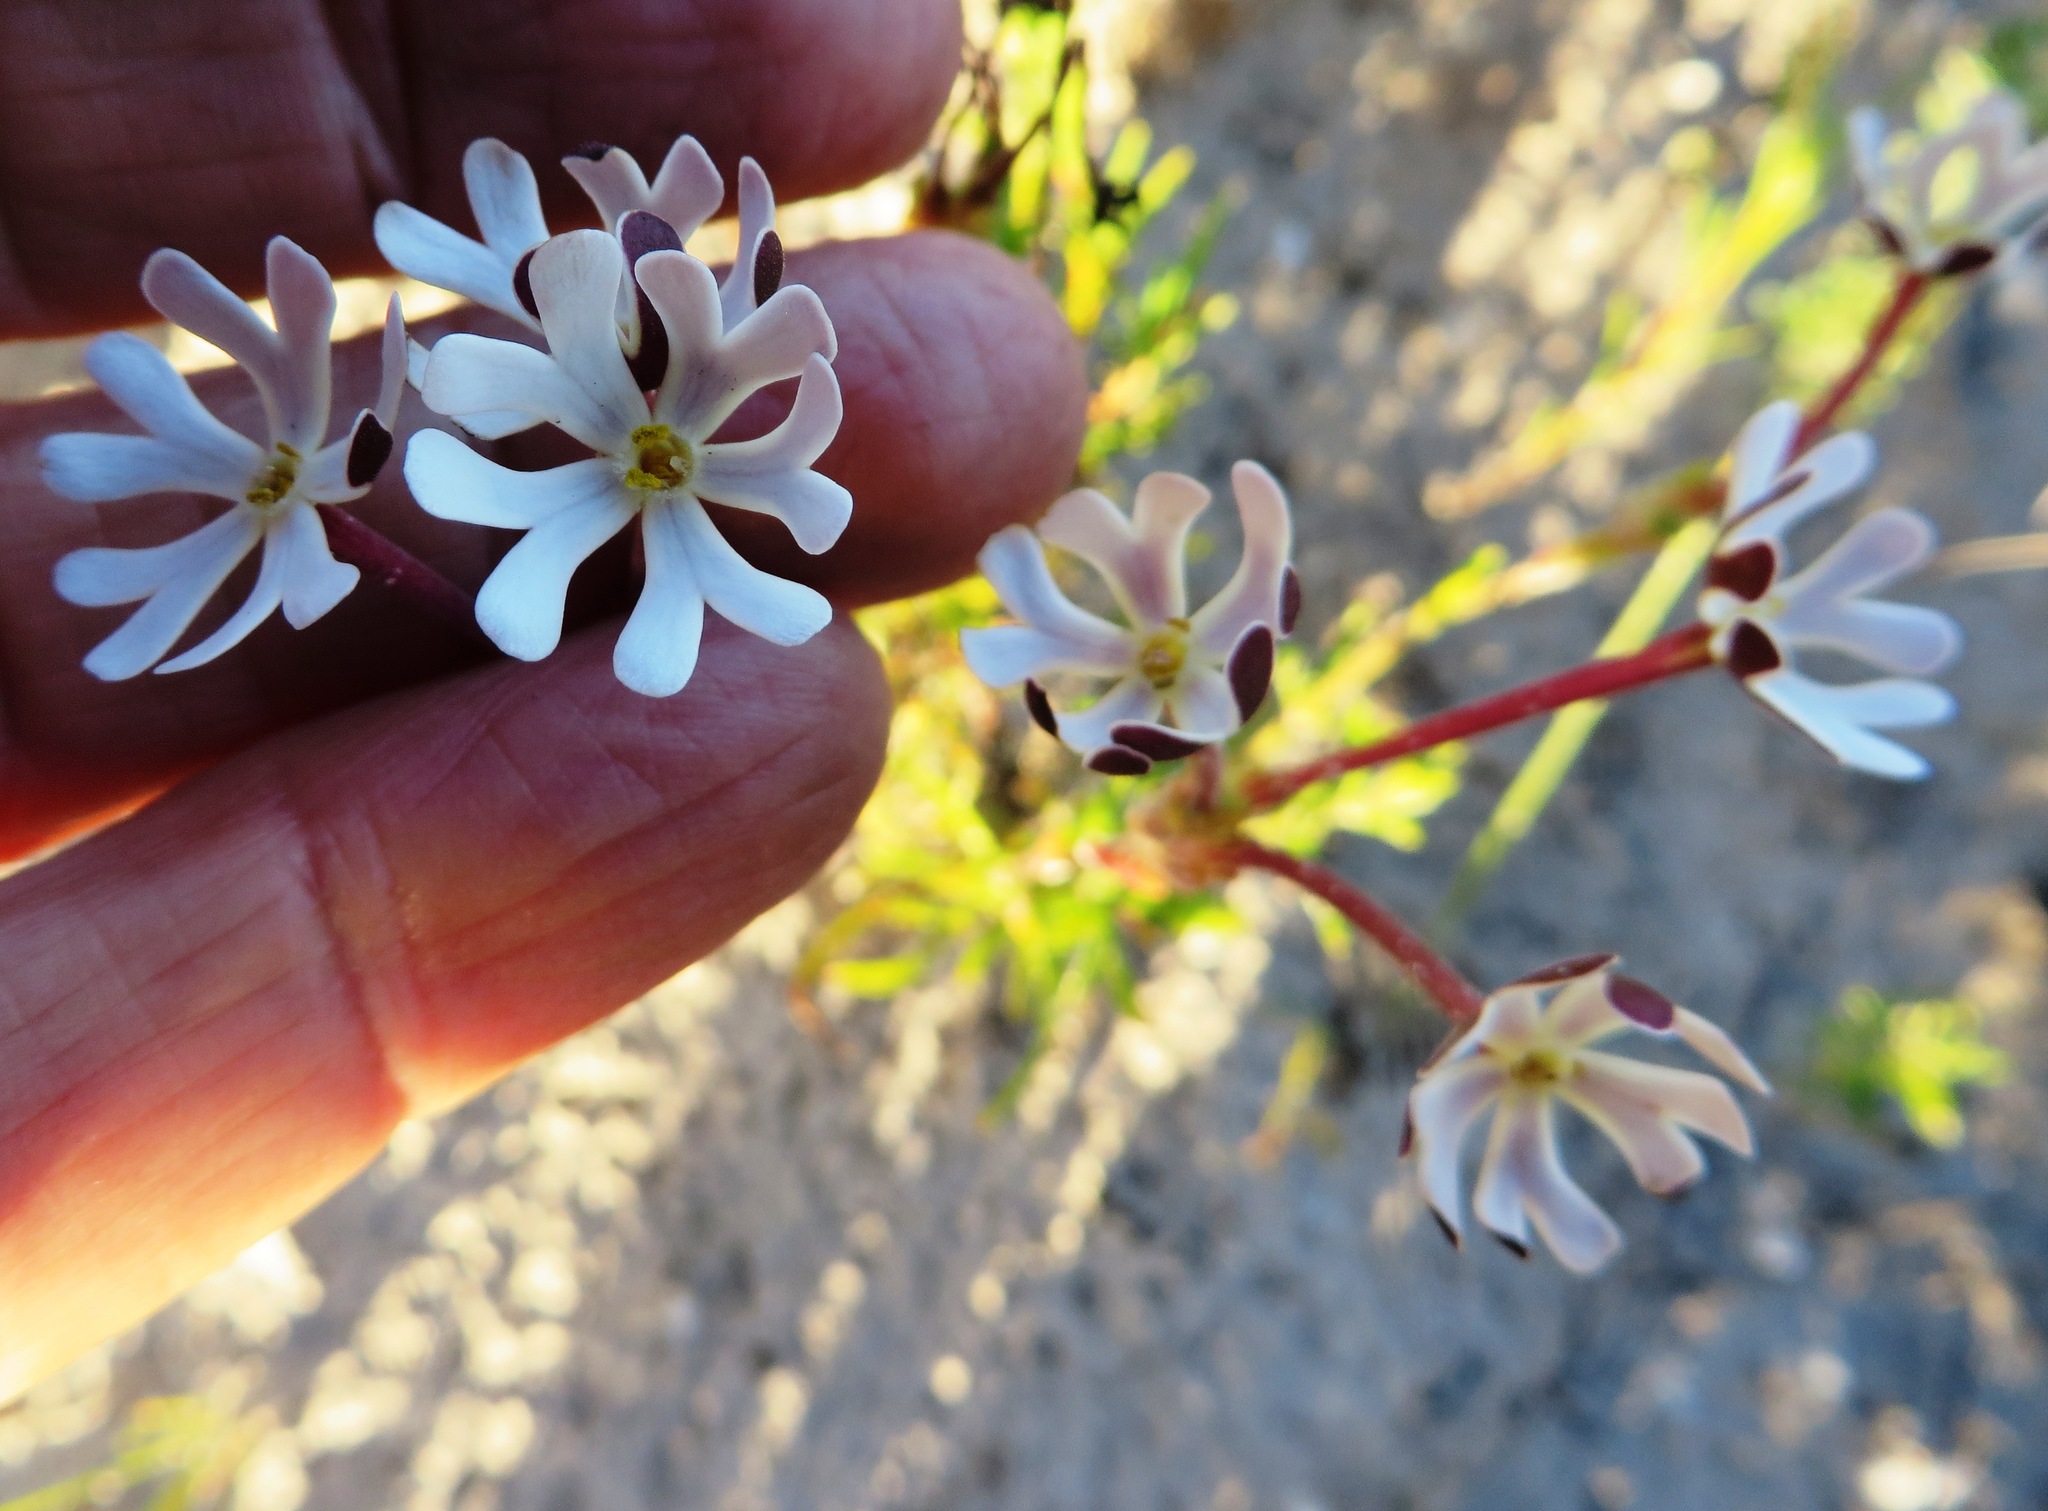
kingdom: Plantae
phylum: Tracheophyta
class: Magnoliopsida
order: Lamiales
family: Scrophulariaceae
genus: Zaluzianskya
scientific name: Zaluzianskya capensis
